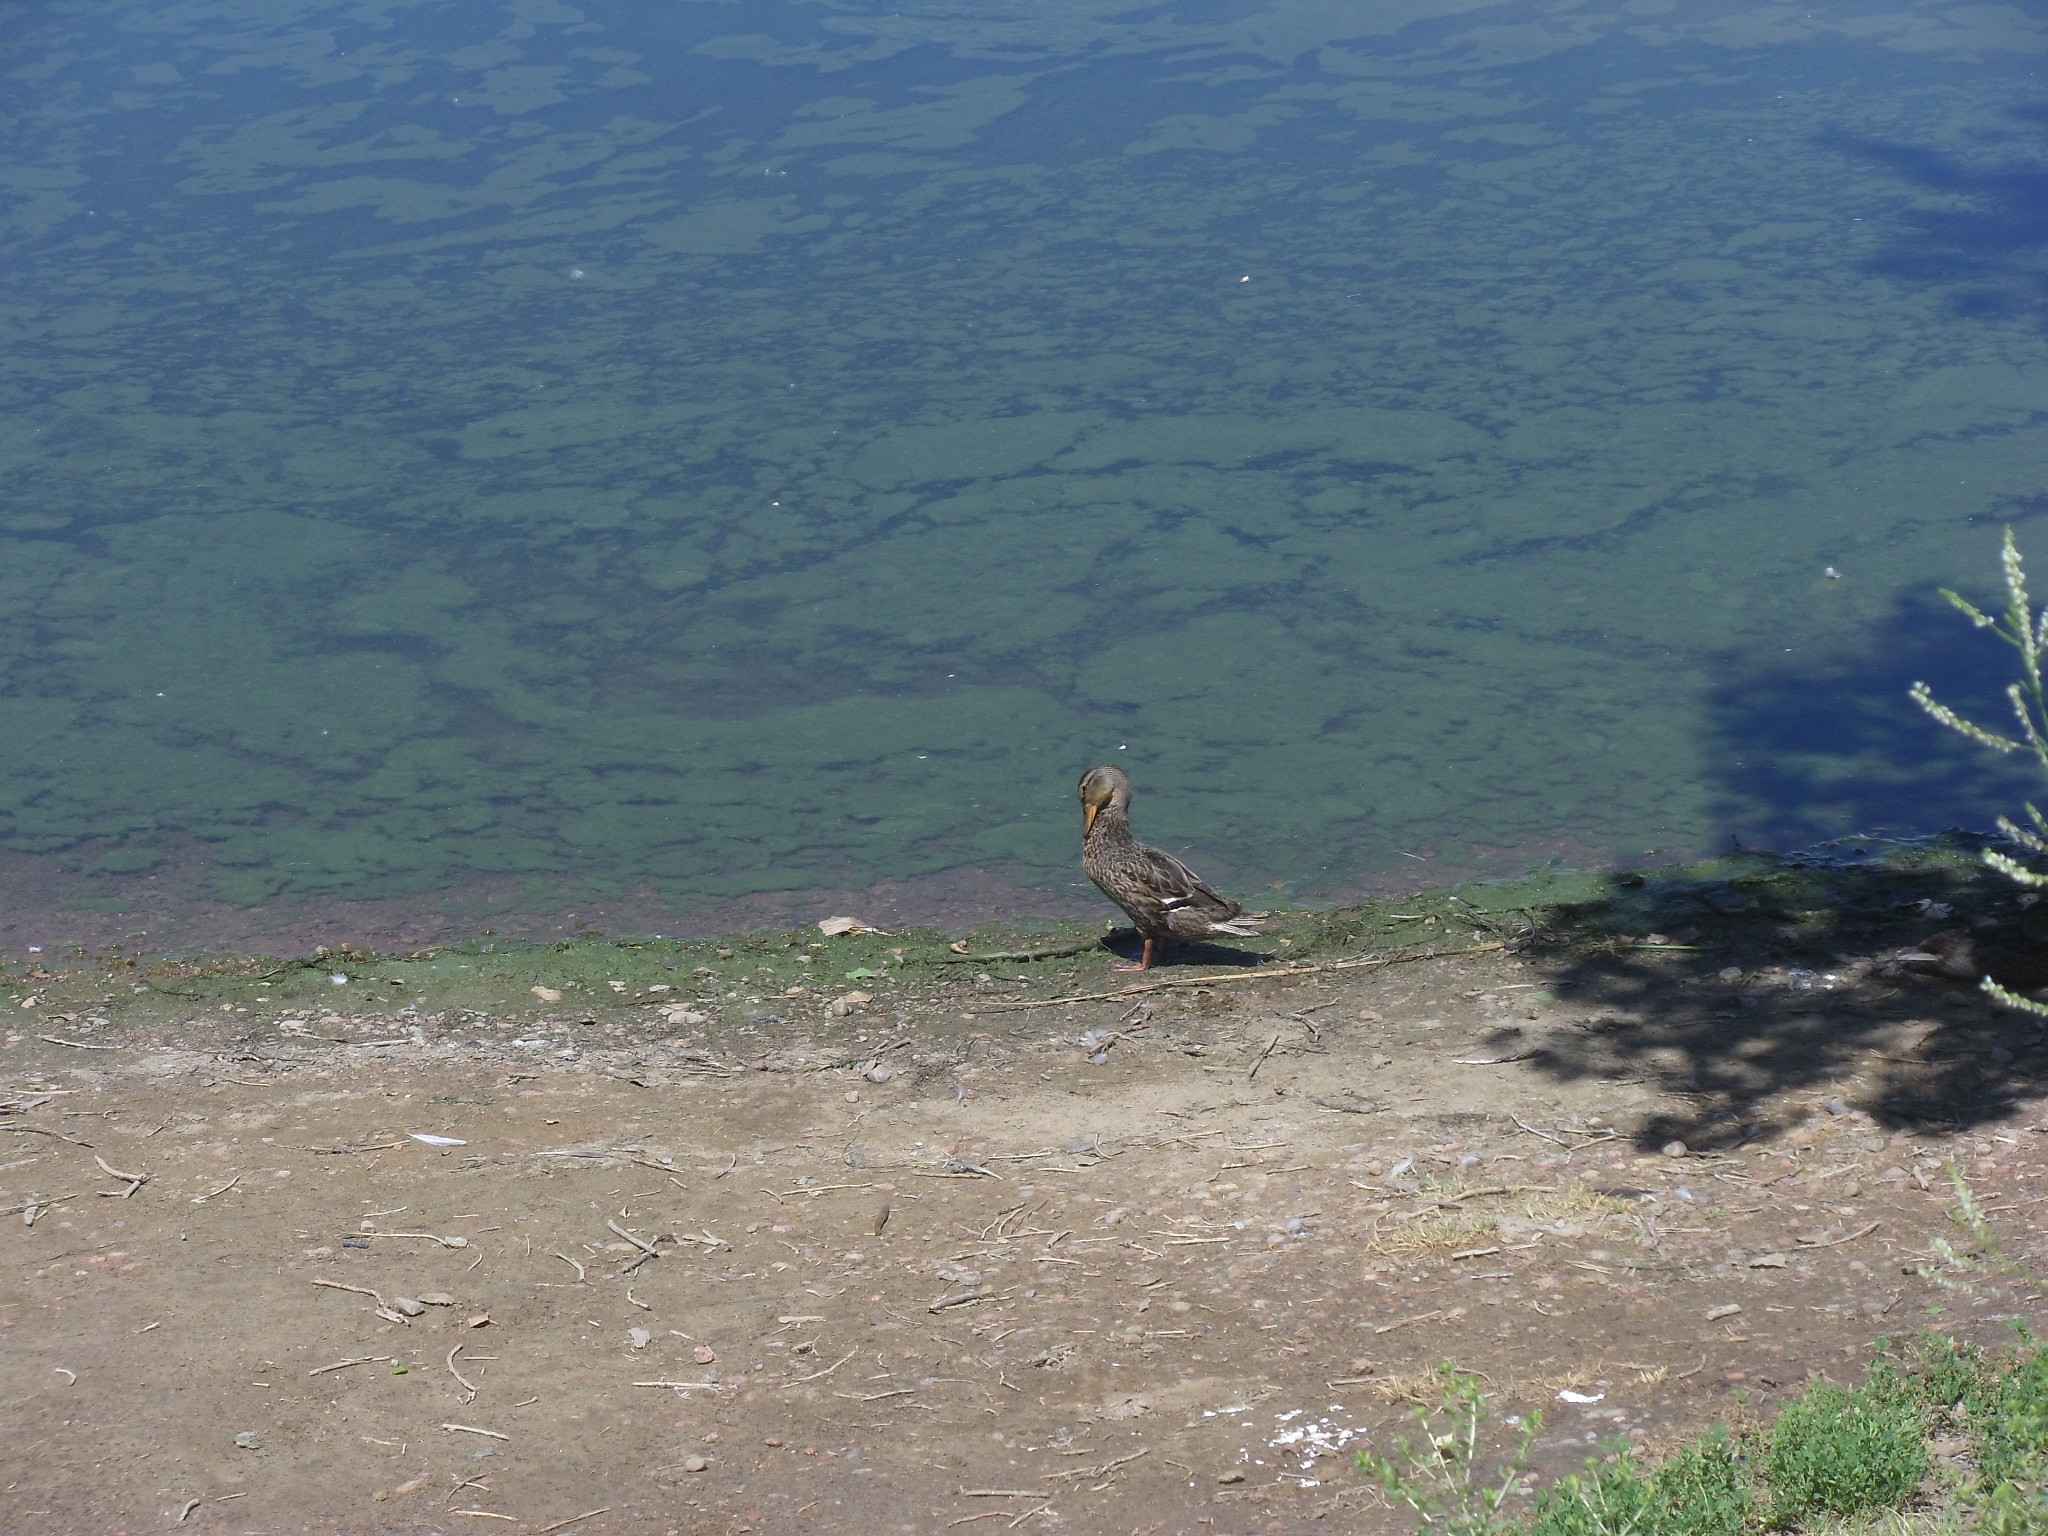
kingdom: Animalia
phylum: Chordata
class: Aves
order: Anseriformes
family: Anatidae
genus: Anas
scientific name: Anas platyrhynchos
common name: Mallard
